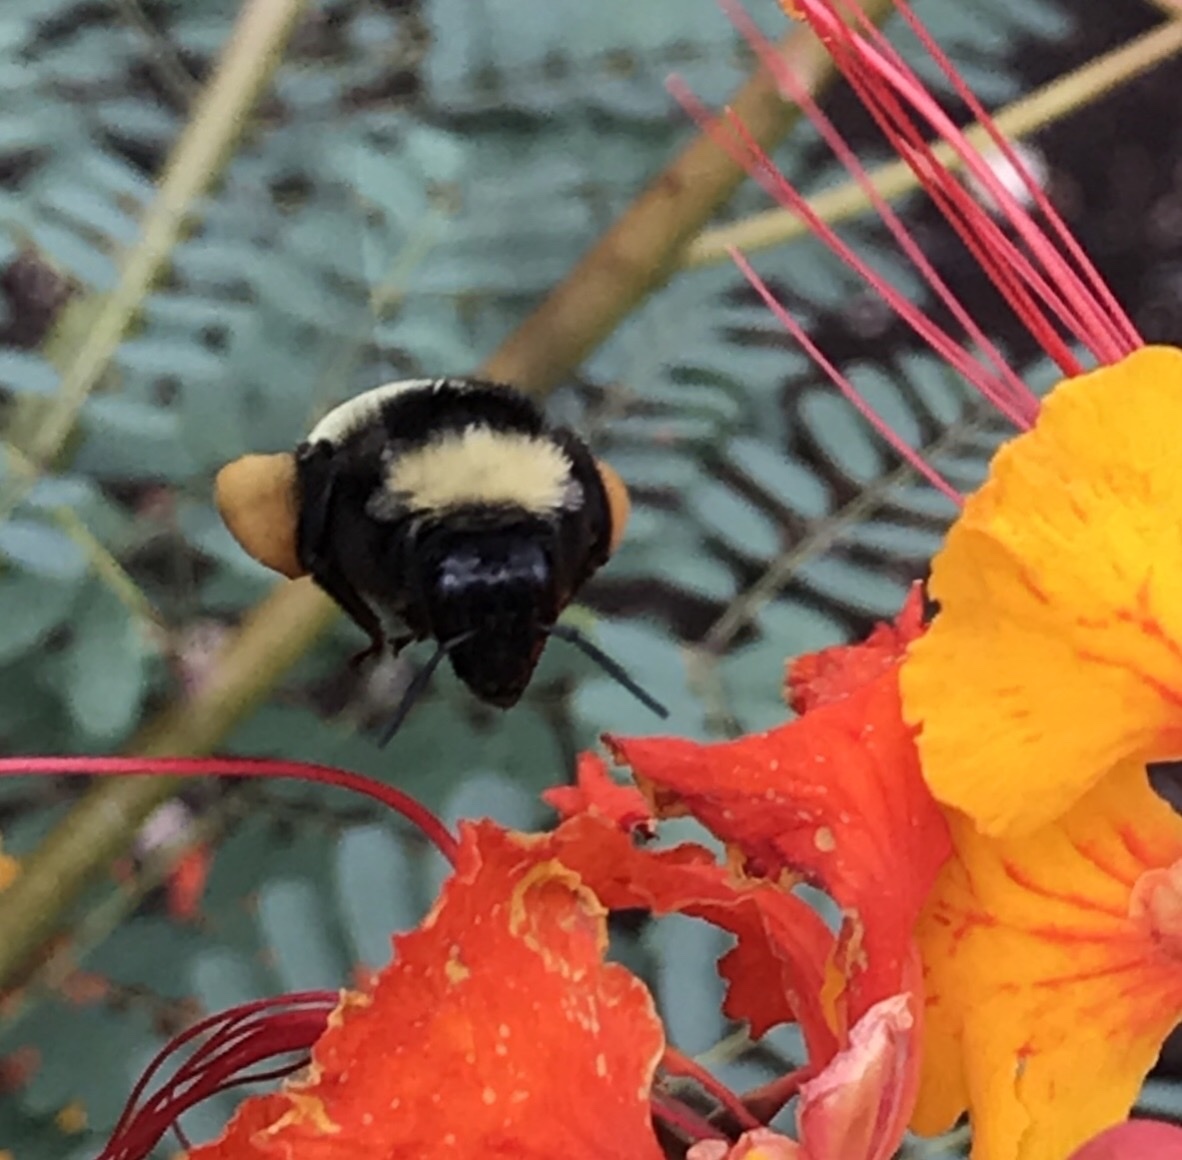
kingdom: Animalia
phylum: Arthropoda
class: Insecta
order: Hymenoptera
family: Apidae
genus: Bombus
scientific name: Bombus pensylvanicus
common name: Bumble bee
